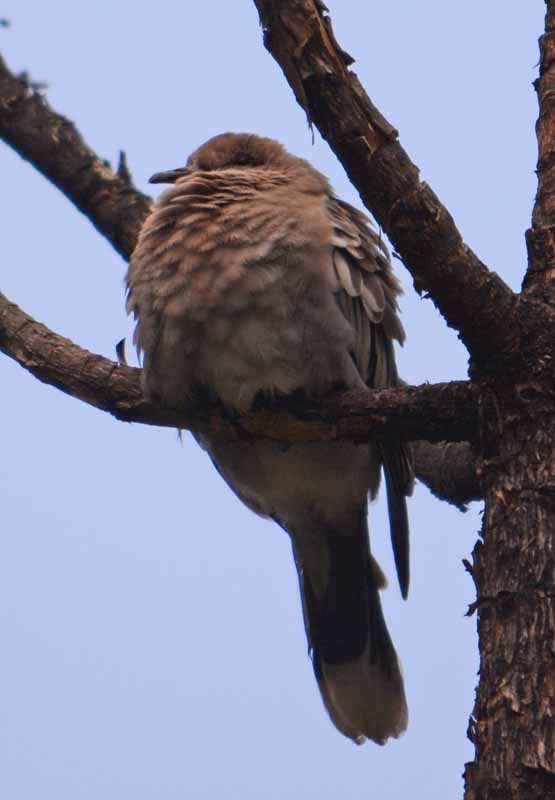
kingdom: Animalia
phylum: Chordata
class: Aves
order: Columbiformes
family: Columbidae
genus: Columbina
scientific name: Columbina inca
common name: Inca dove
